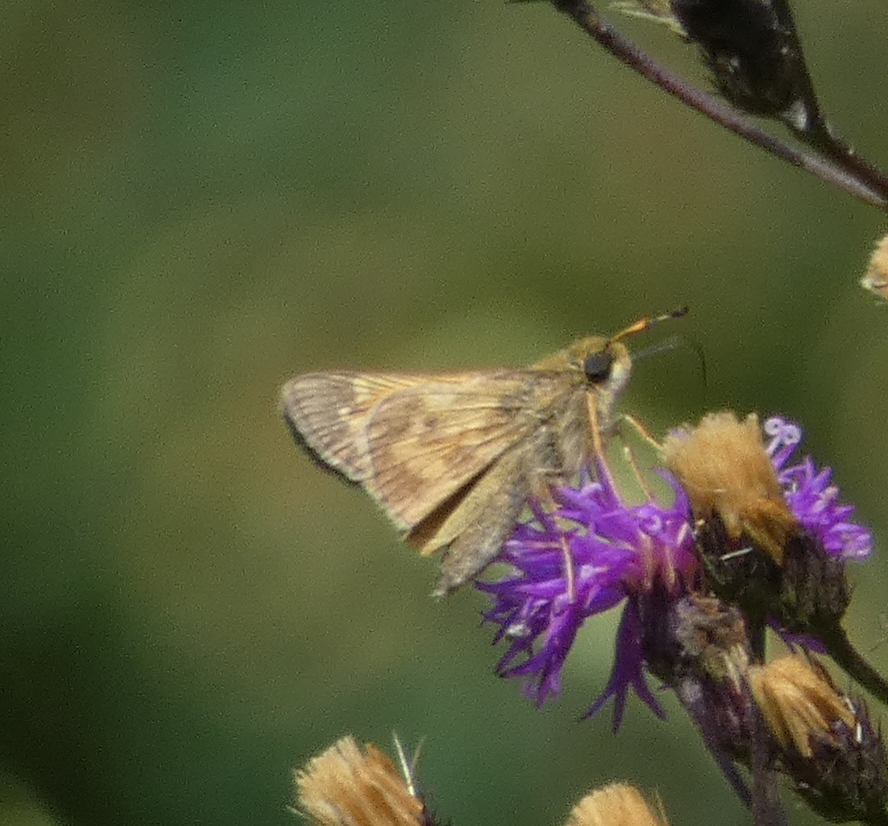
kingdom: Animalia
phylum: Arthropoda
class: Insecta
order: Lepidoptera
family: Hesperiidae
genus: Atalopedes
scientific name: Atalopedes
